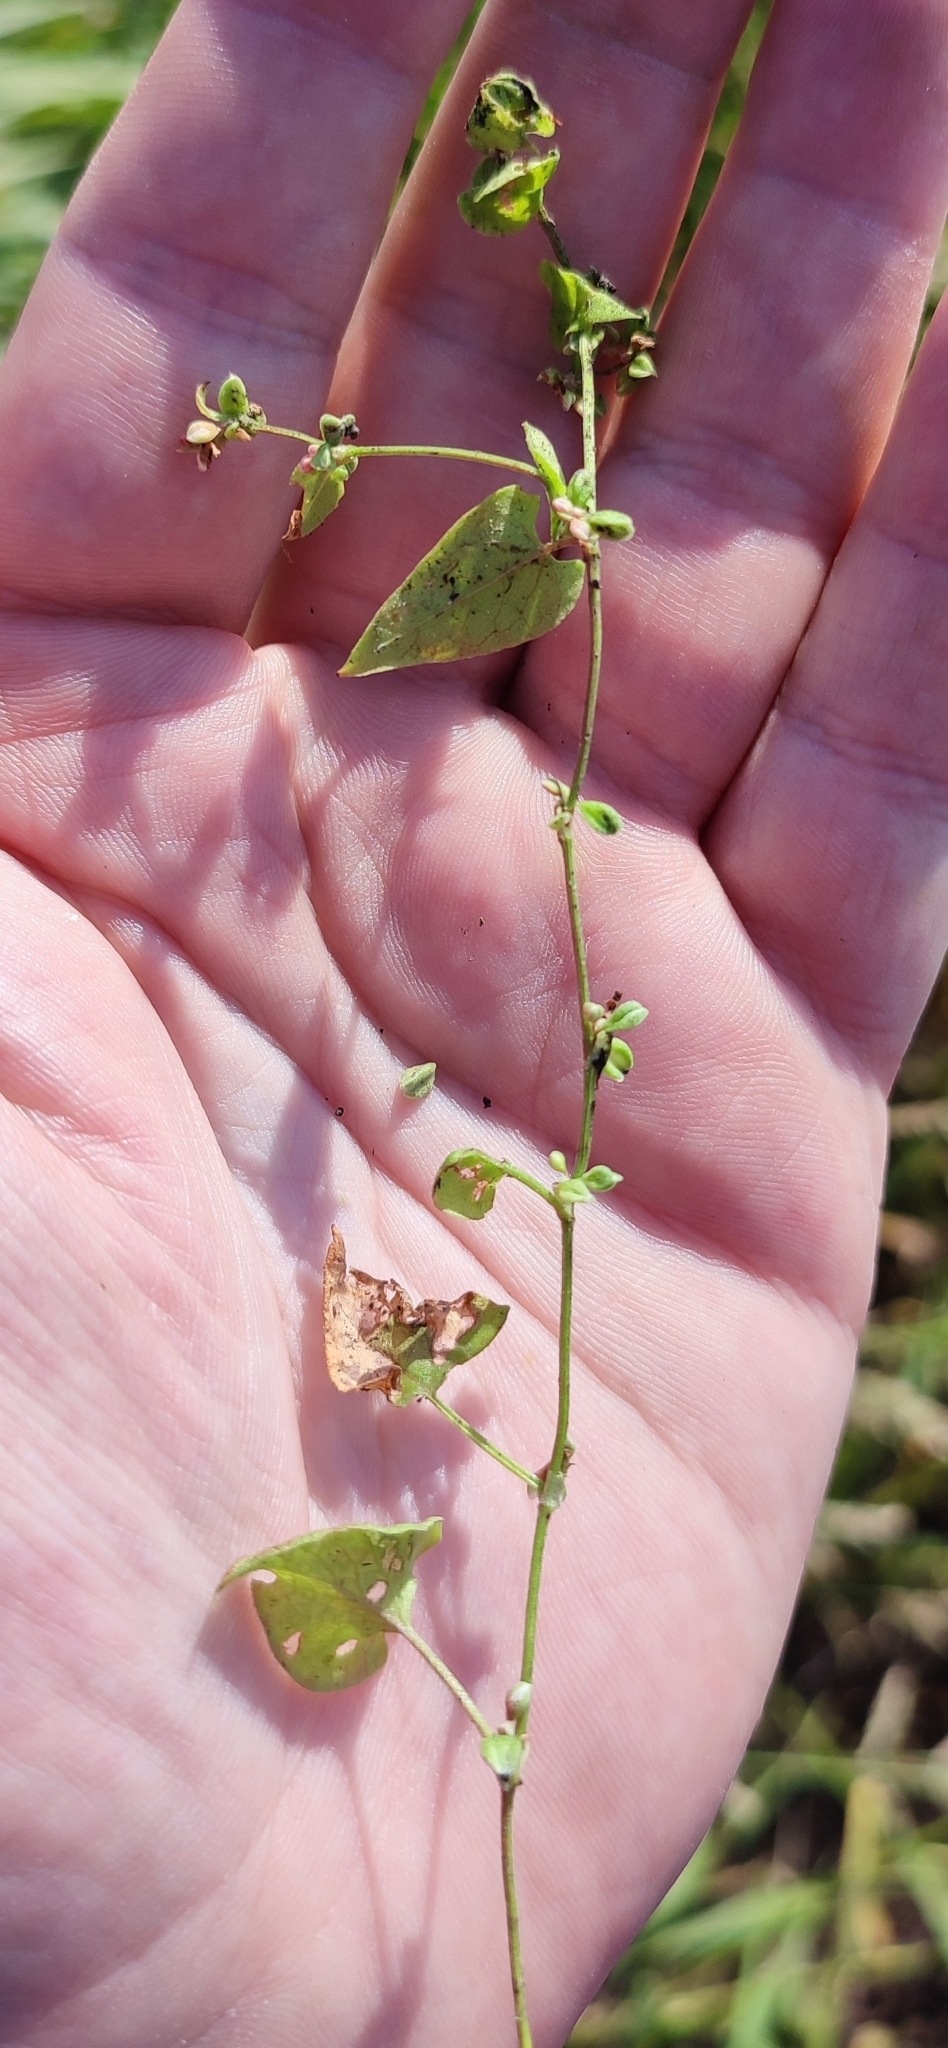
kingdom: Plantae
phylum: Tracheophyta
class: Magnoliopsida
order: Caryophyllales
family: Polygonaceae
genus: Fallopia
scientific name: Fallopia convolvulus
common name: Black bindweed
